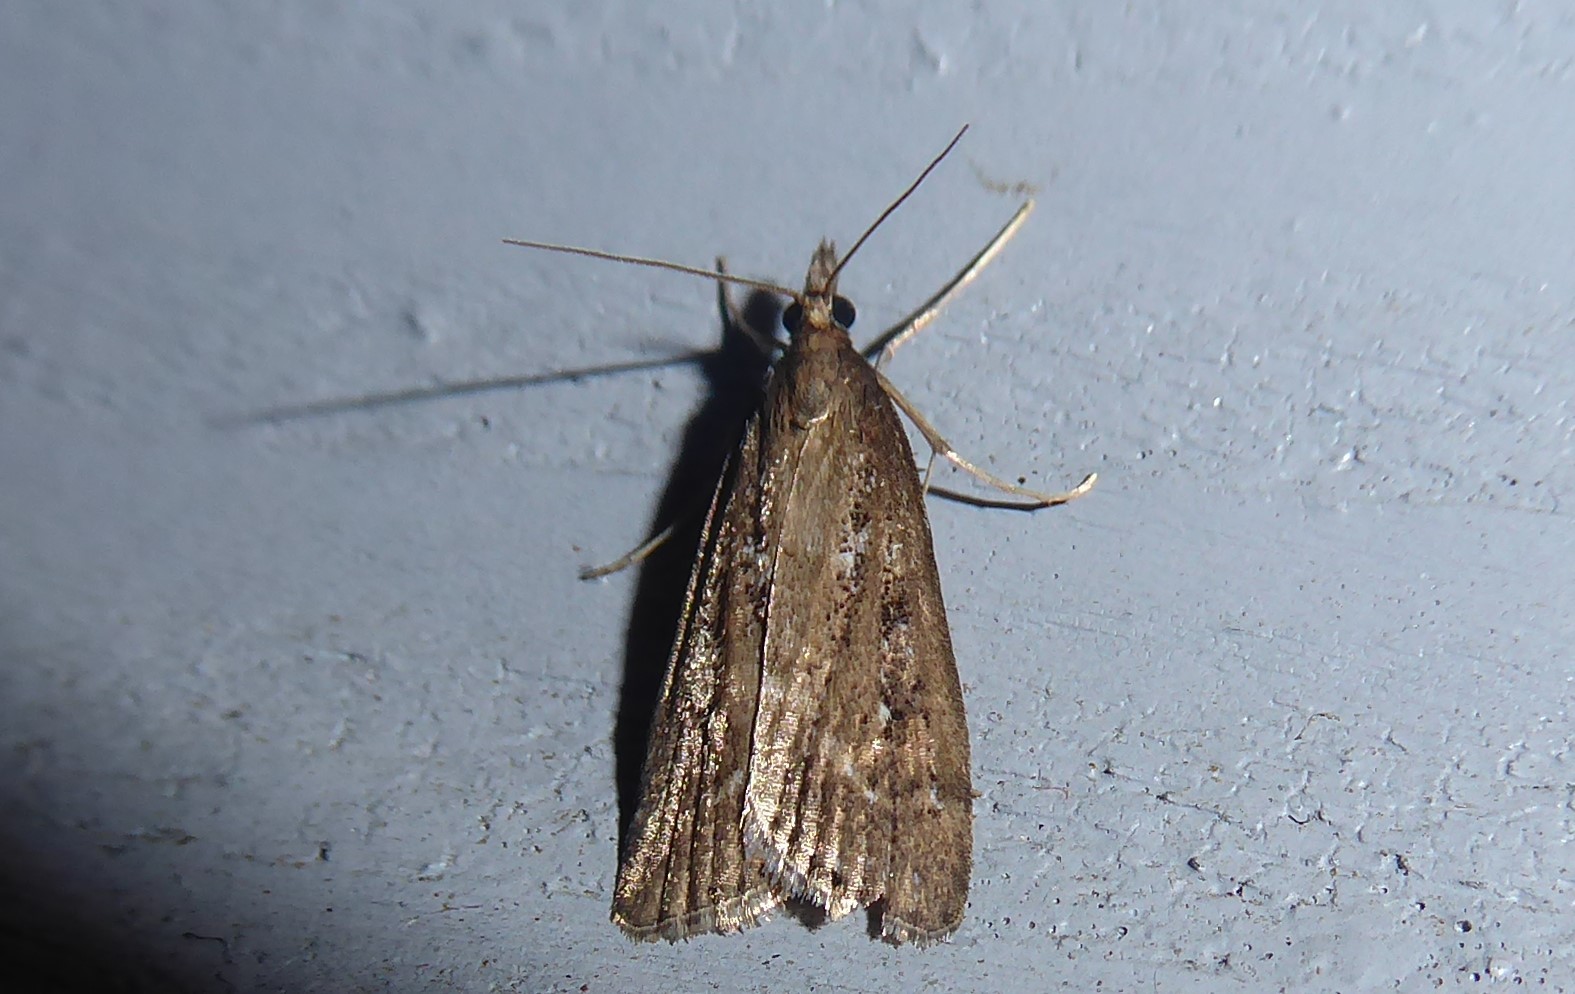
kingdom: Animalia
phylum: Arthropoda
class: Insecta
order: Lepidoptera
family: Crambidae
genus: Eudonia
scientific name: Eudonia octophora
